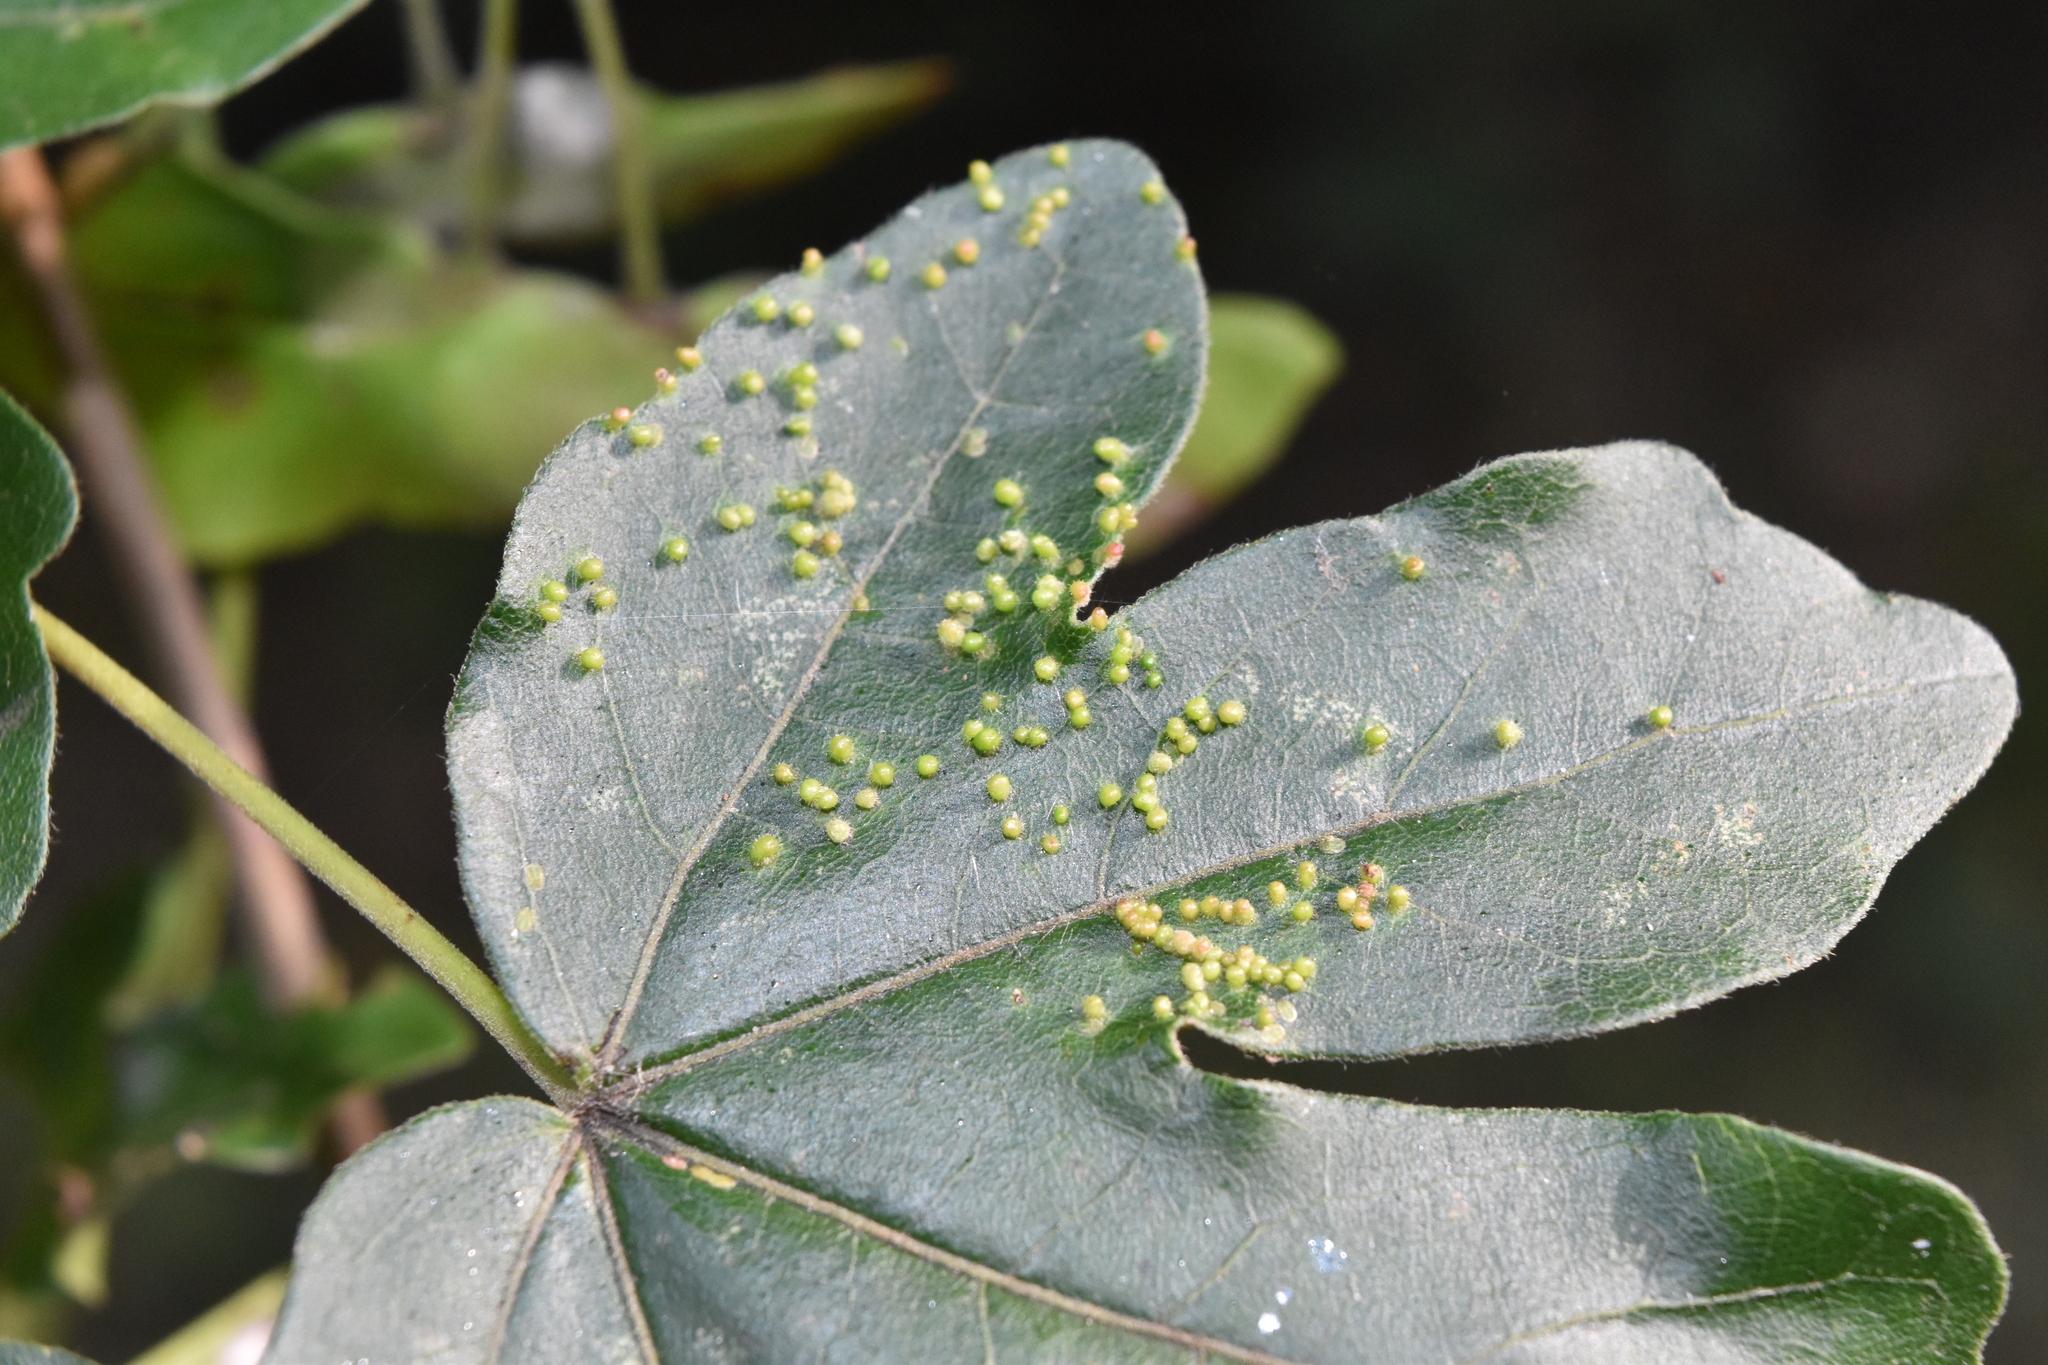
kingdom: Animalia
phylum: Arthropoda
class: Arachnida
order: Trombidiformes
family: Eriophyidae
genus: Aceria
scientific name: Aceria myriadeum
